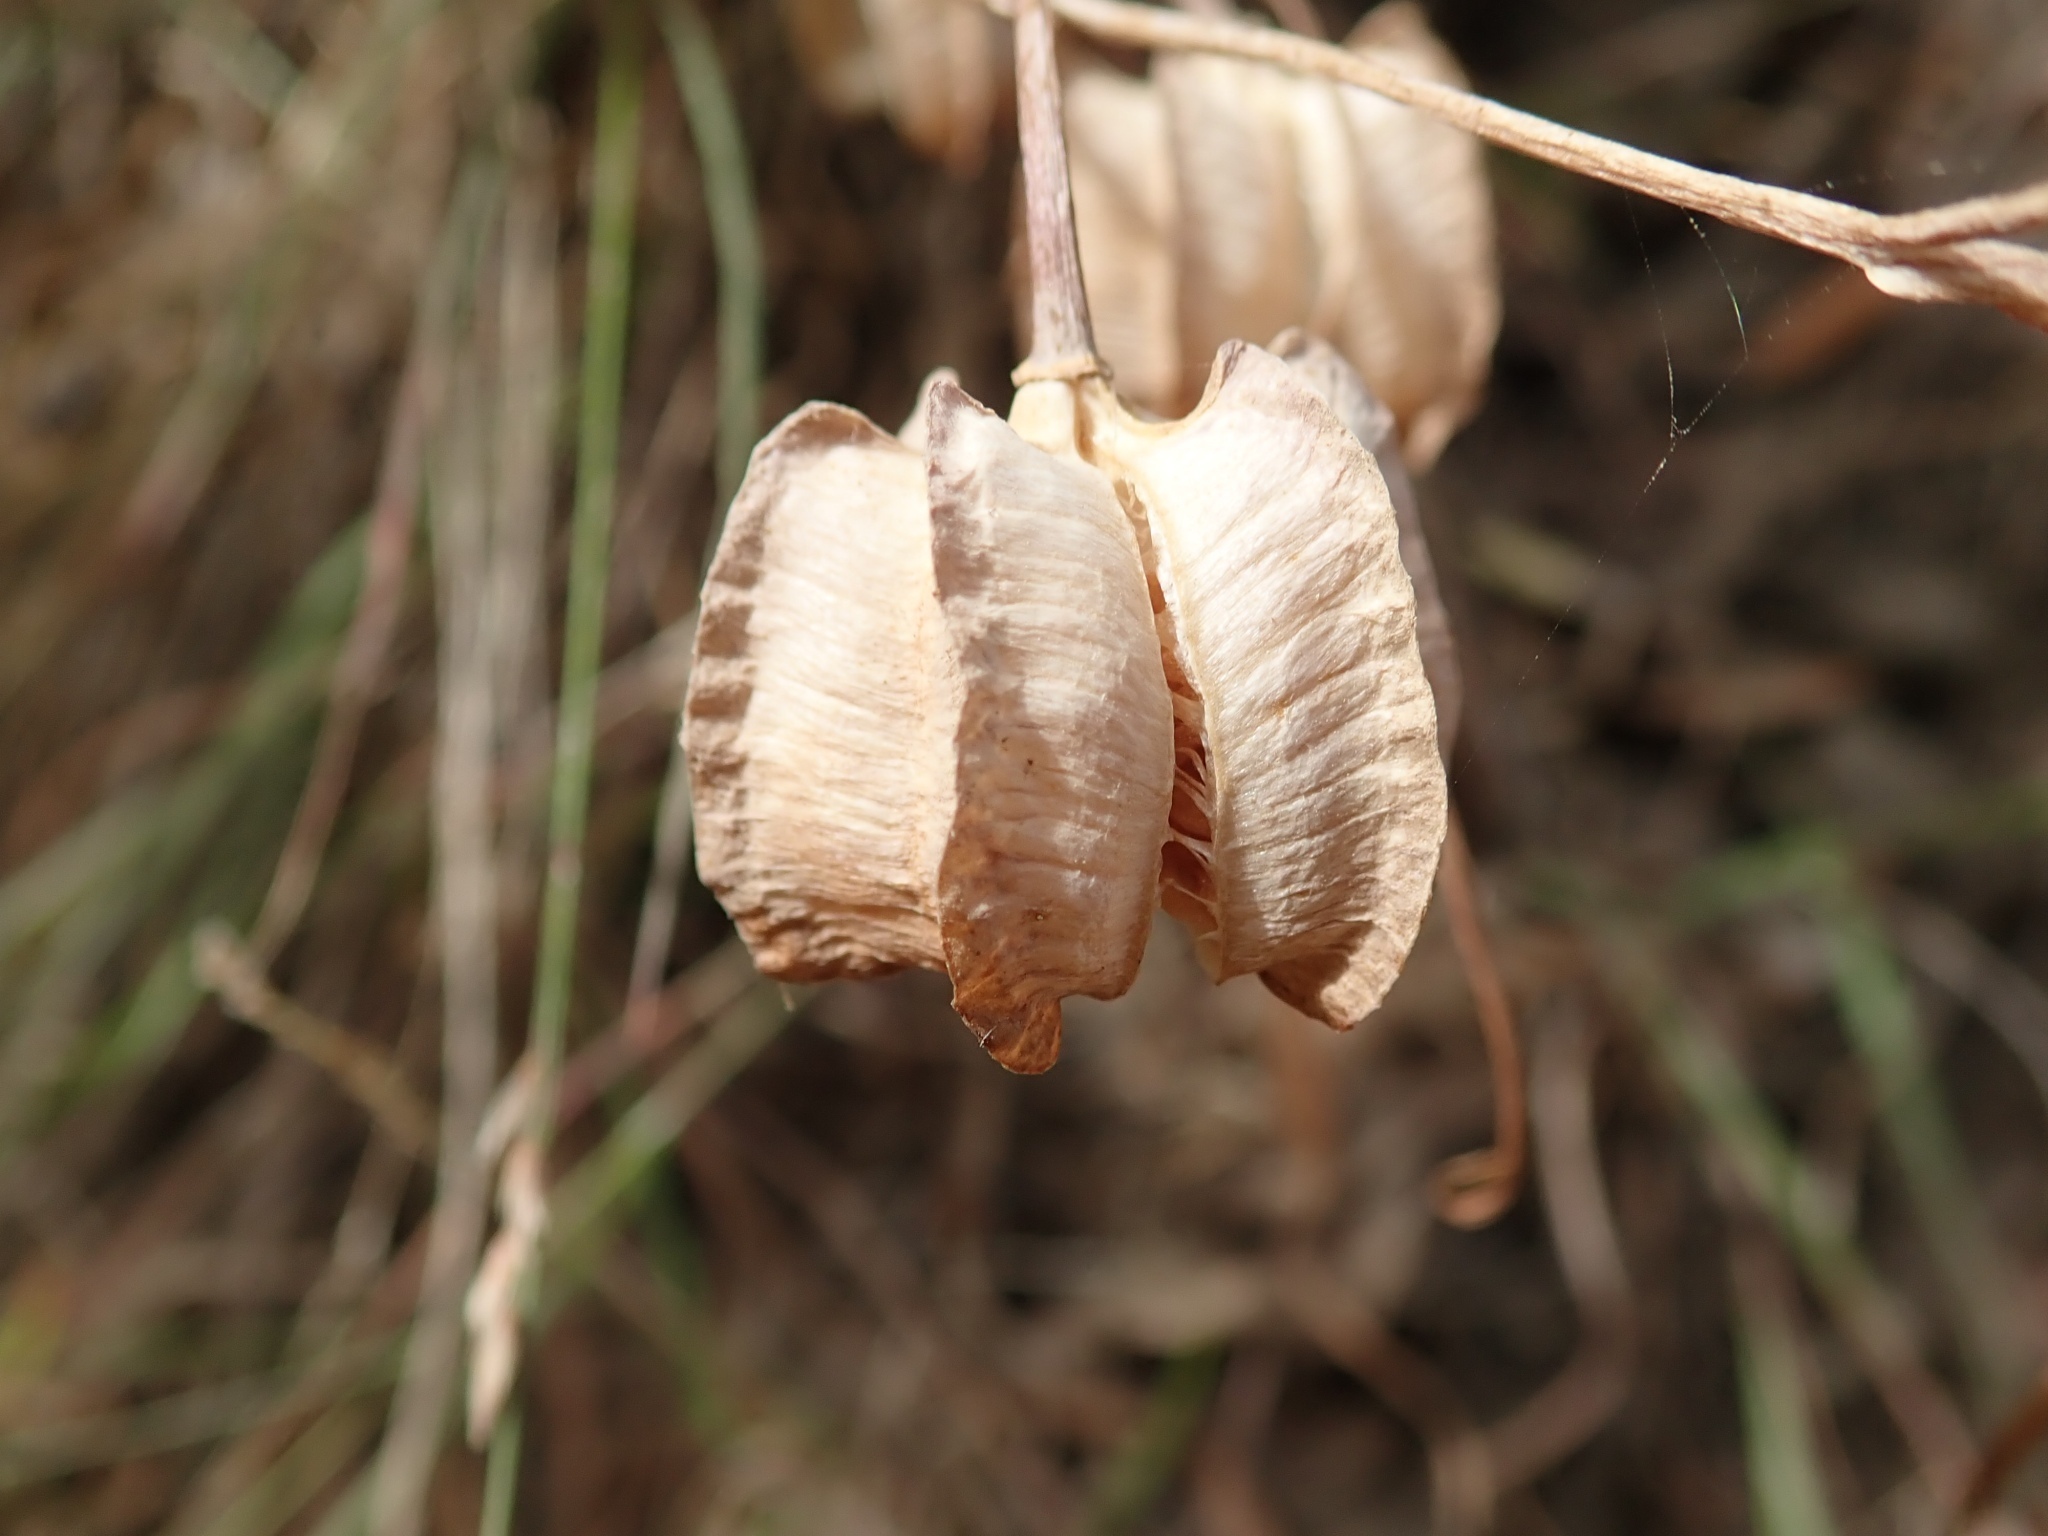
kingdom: Plantae
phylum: Tracheophyta
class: Liliopsida
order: Liliales
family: Liliaceae
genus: Fritillaria
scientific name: Fritillaria affinis
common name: Ojai fritillary
